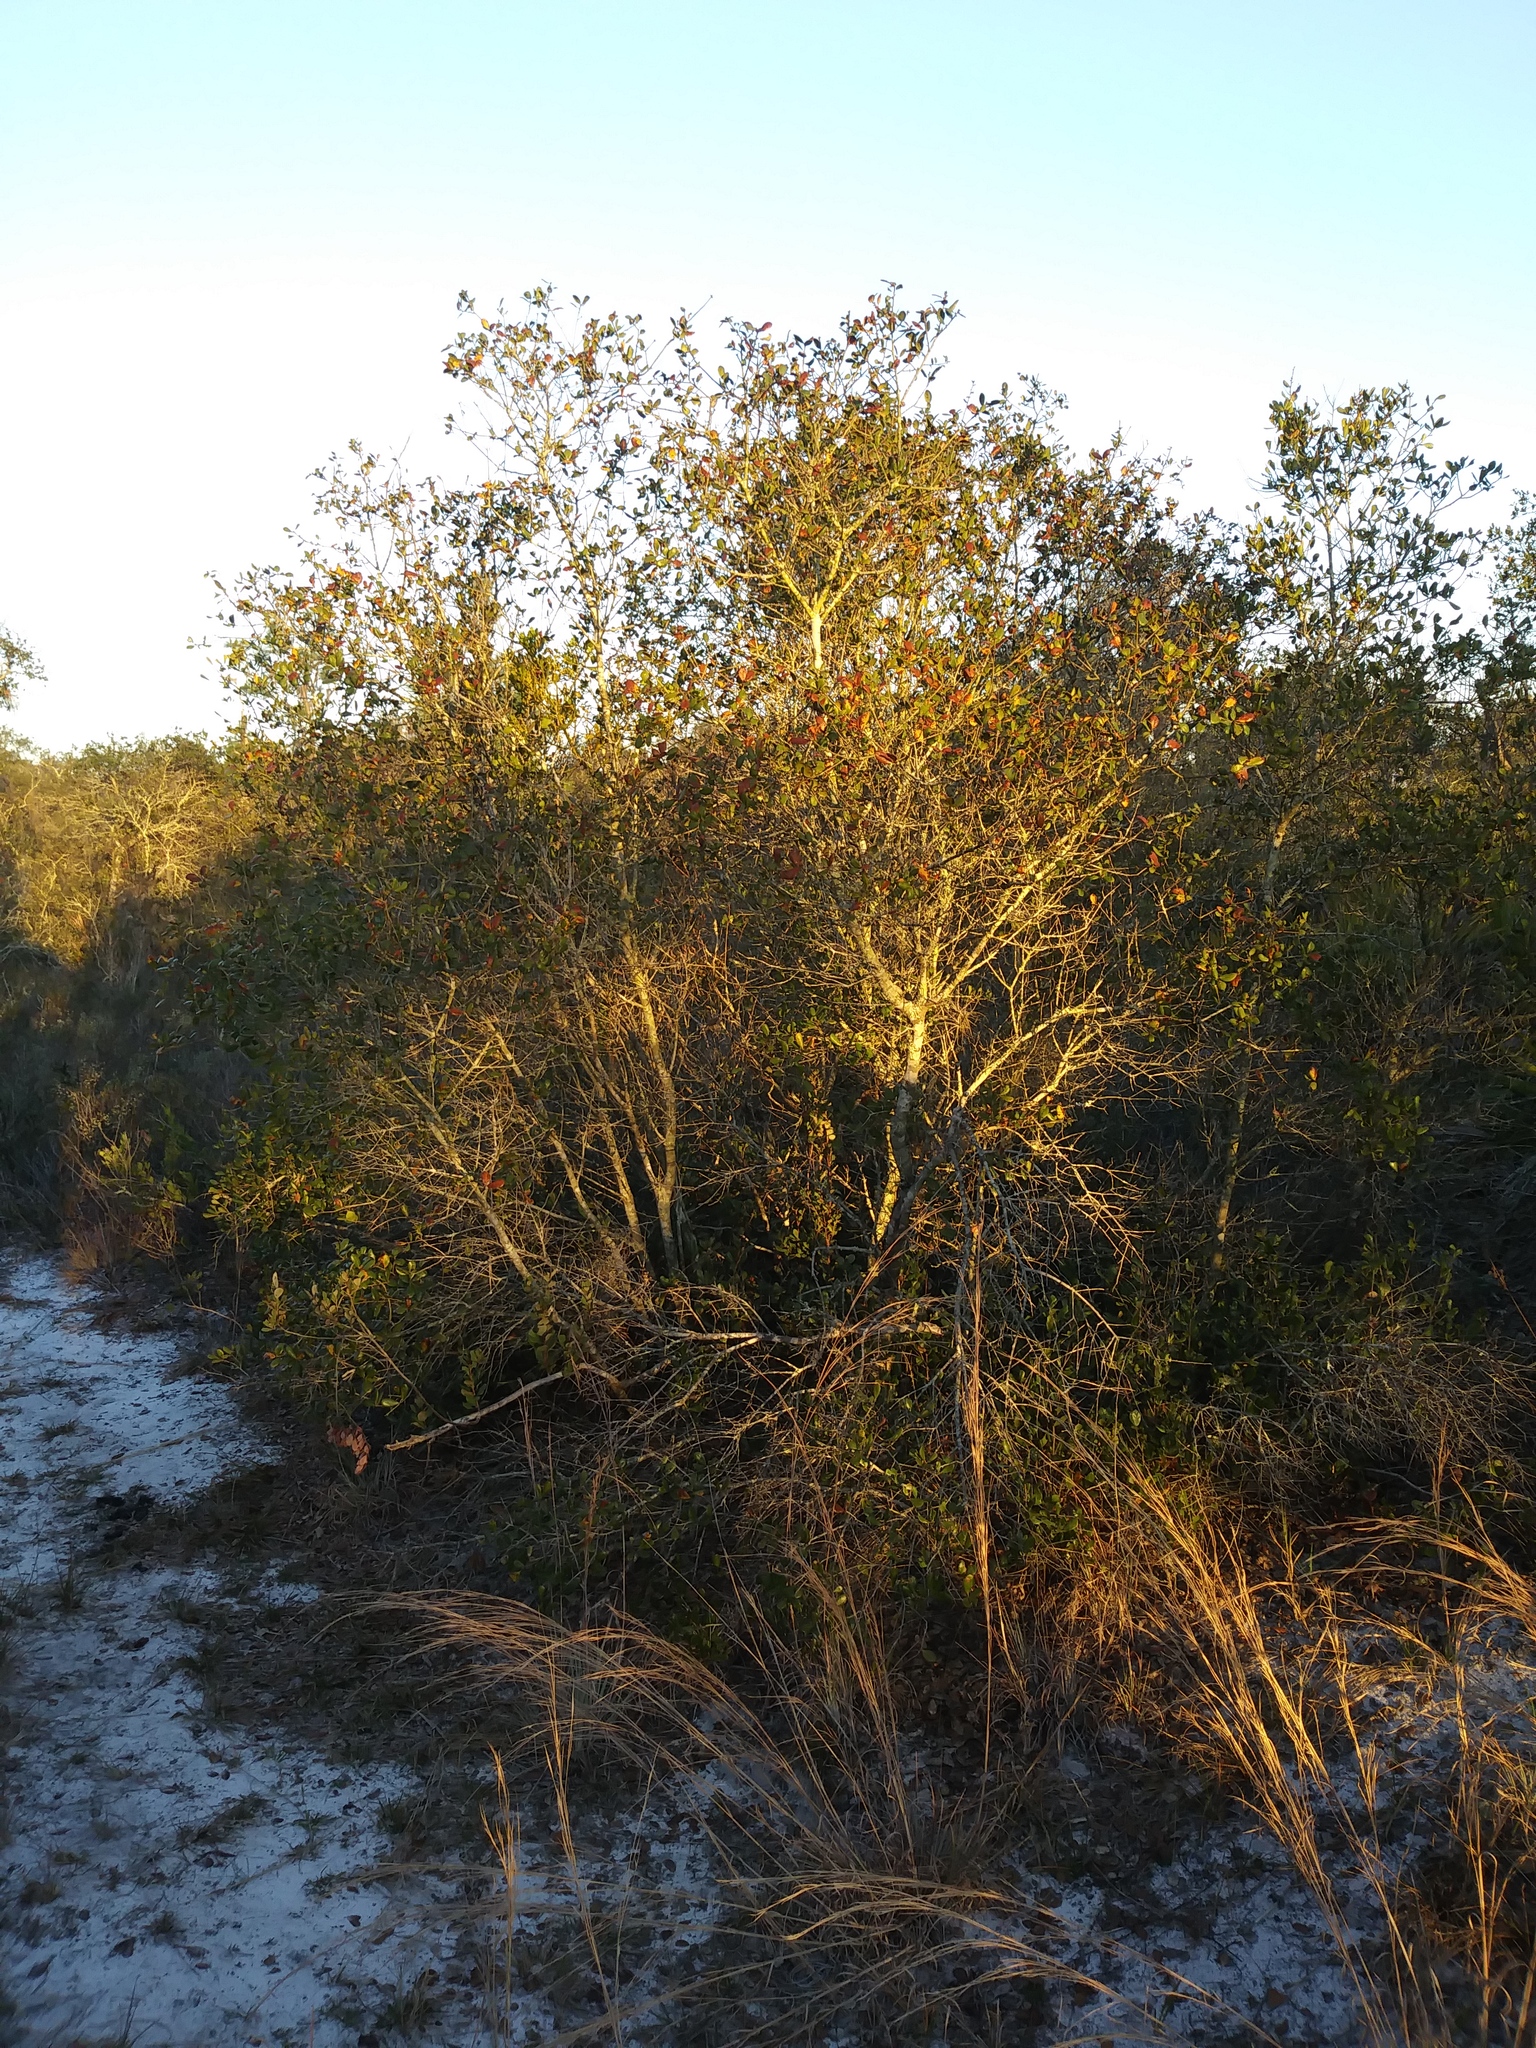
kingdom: Plantae
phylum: Tracheophyta
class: Magnoliopsida
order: Fagales
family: Fagaceae
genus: Quercus
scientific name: Quercus myrtifolia
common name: Myrtle oak
